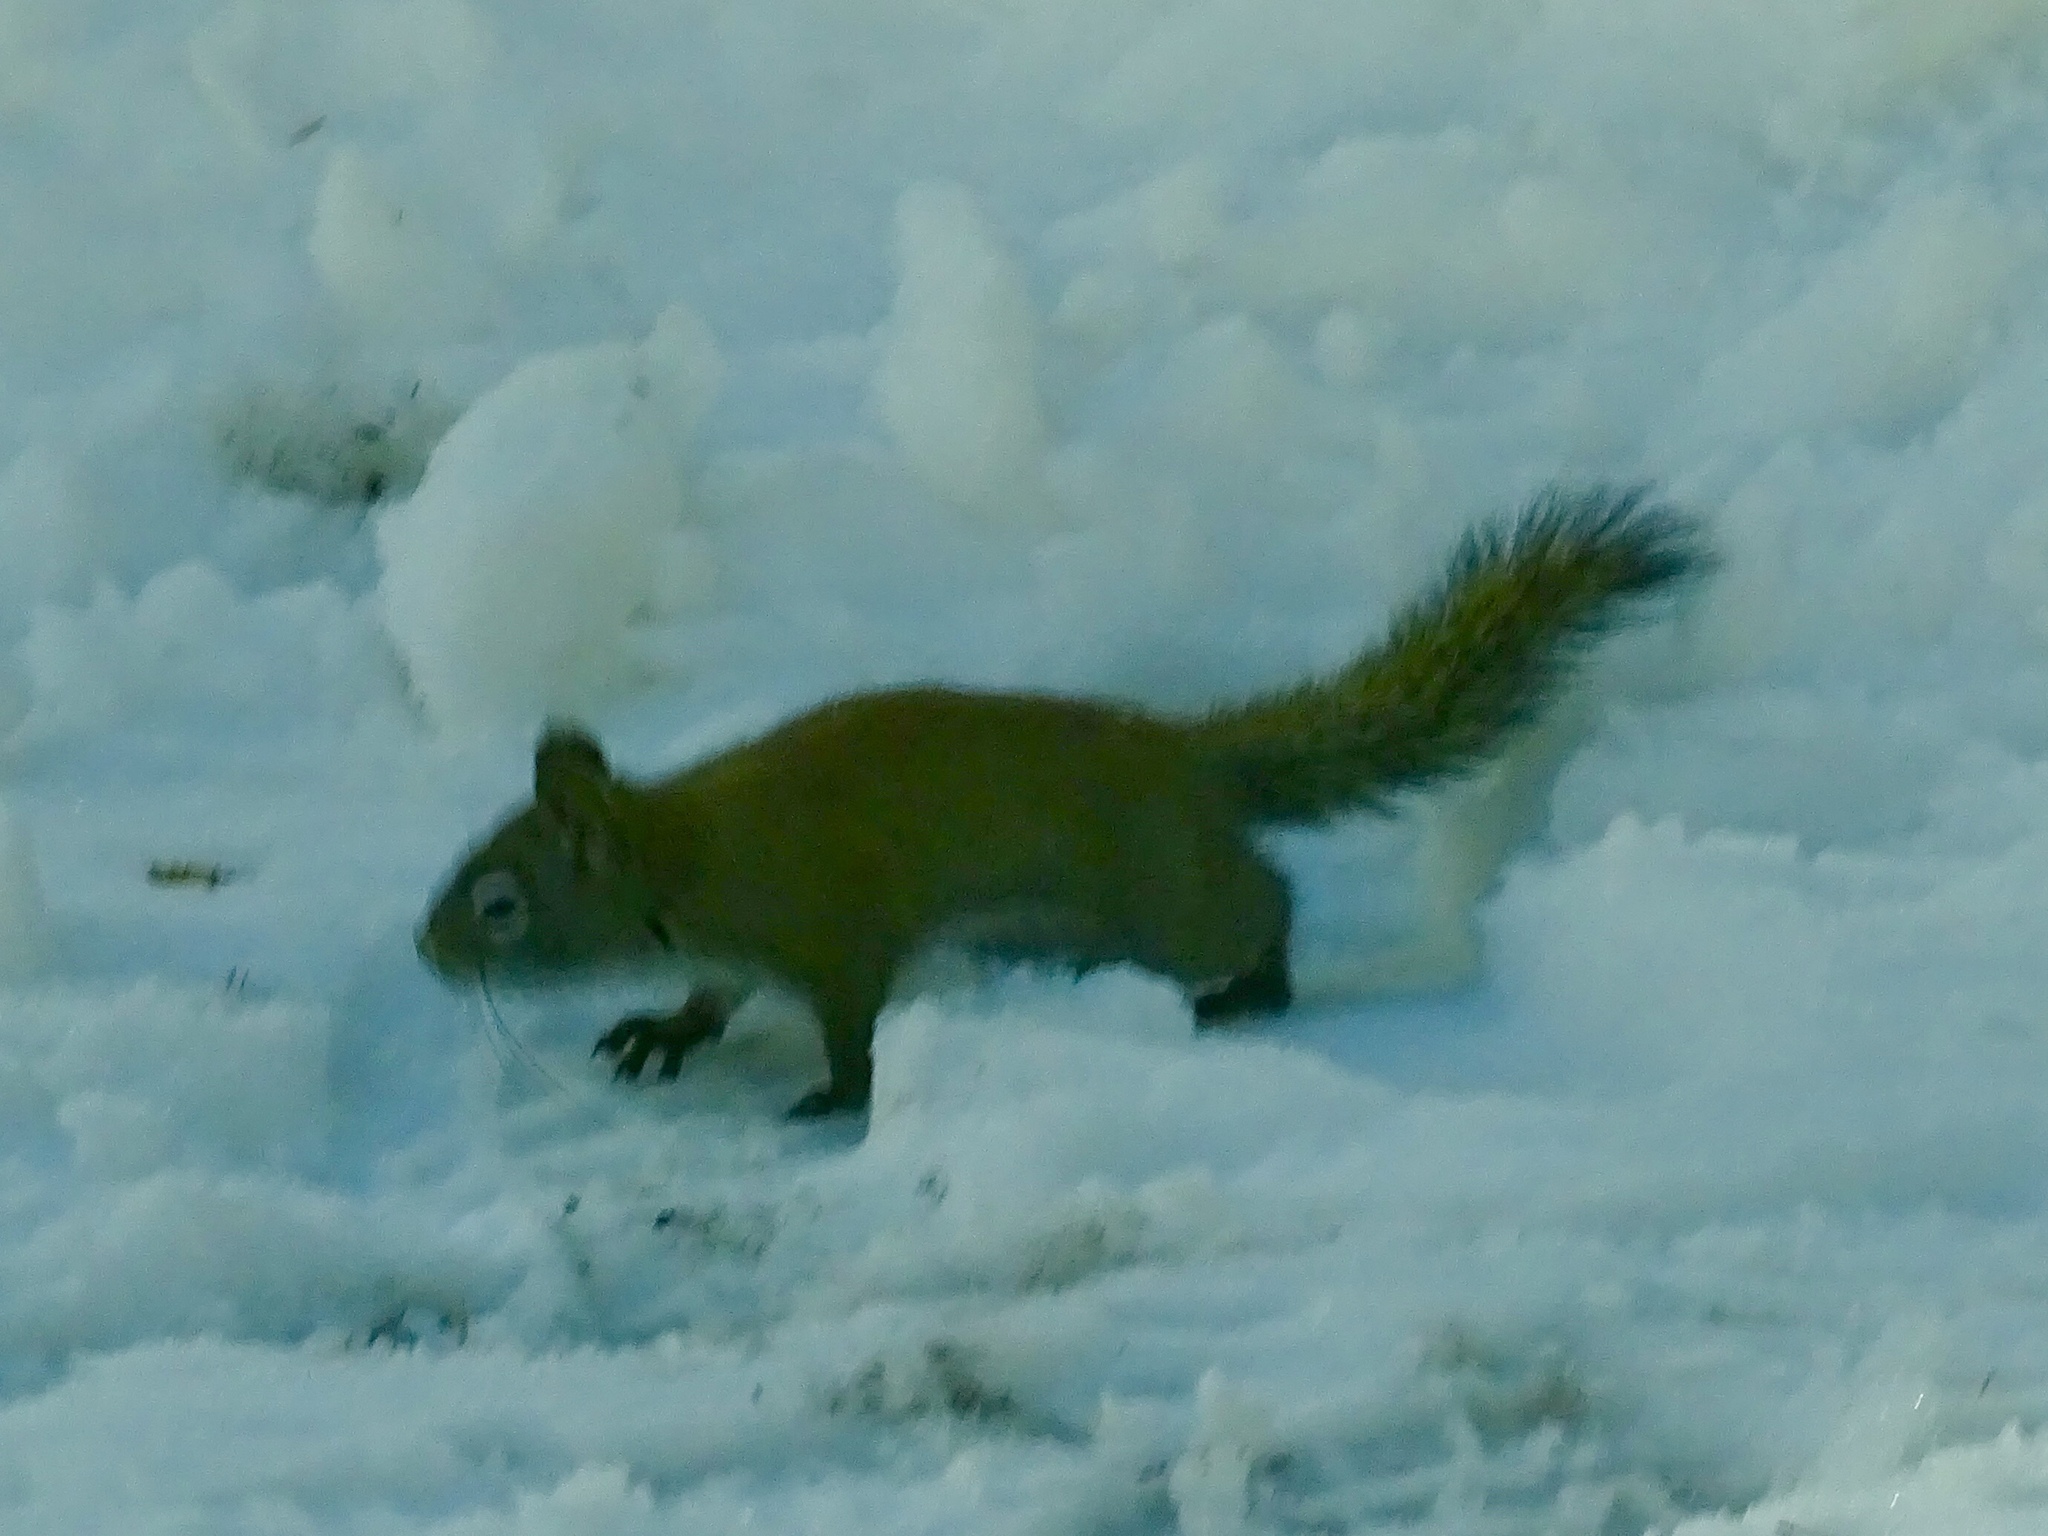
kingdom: Animalia
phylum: Chordata
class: Mammalia
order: Rodentia
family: Sciuridae
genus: Tamiasciurus
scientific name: Tamiasciurus hudsonicus
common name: Red squirrel
